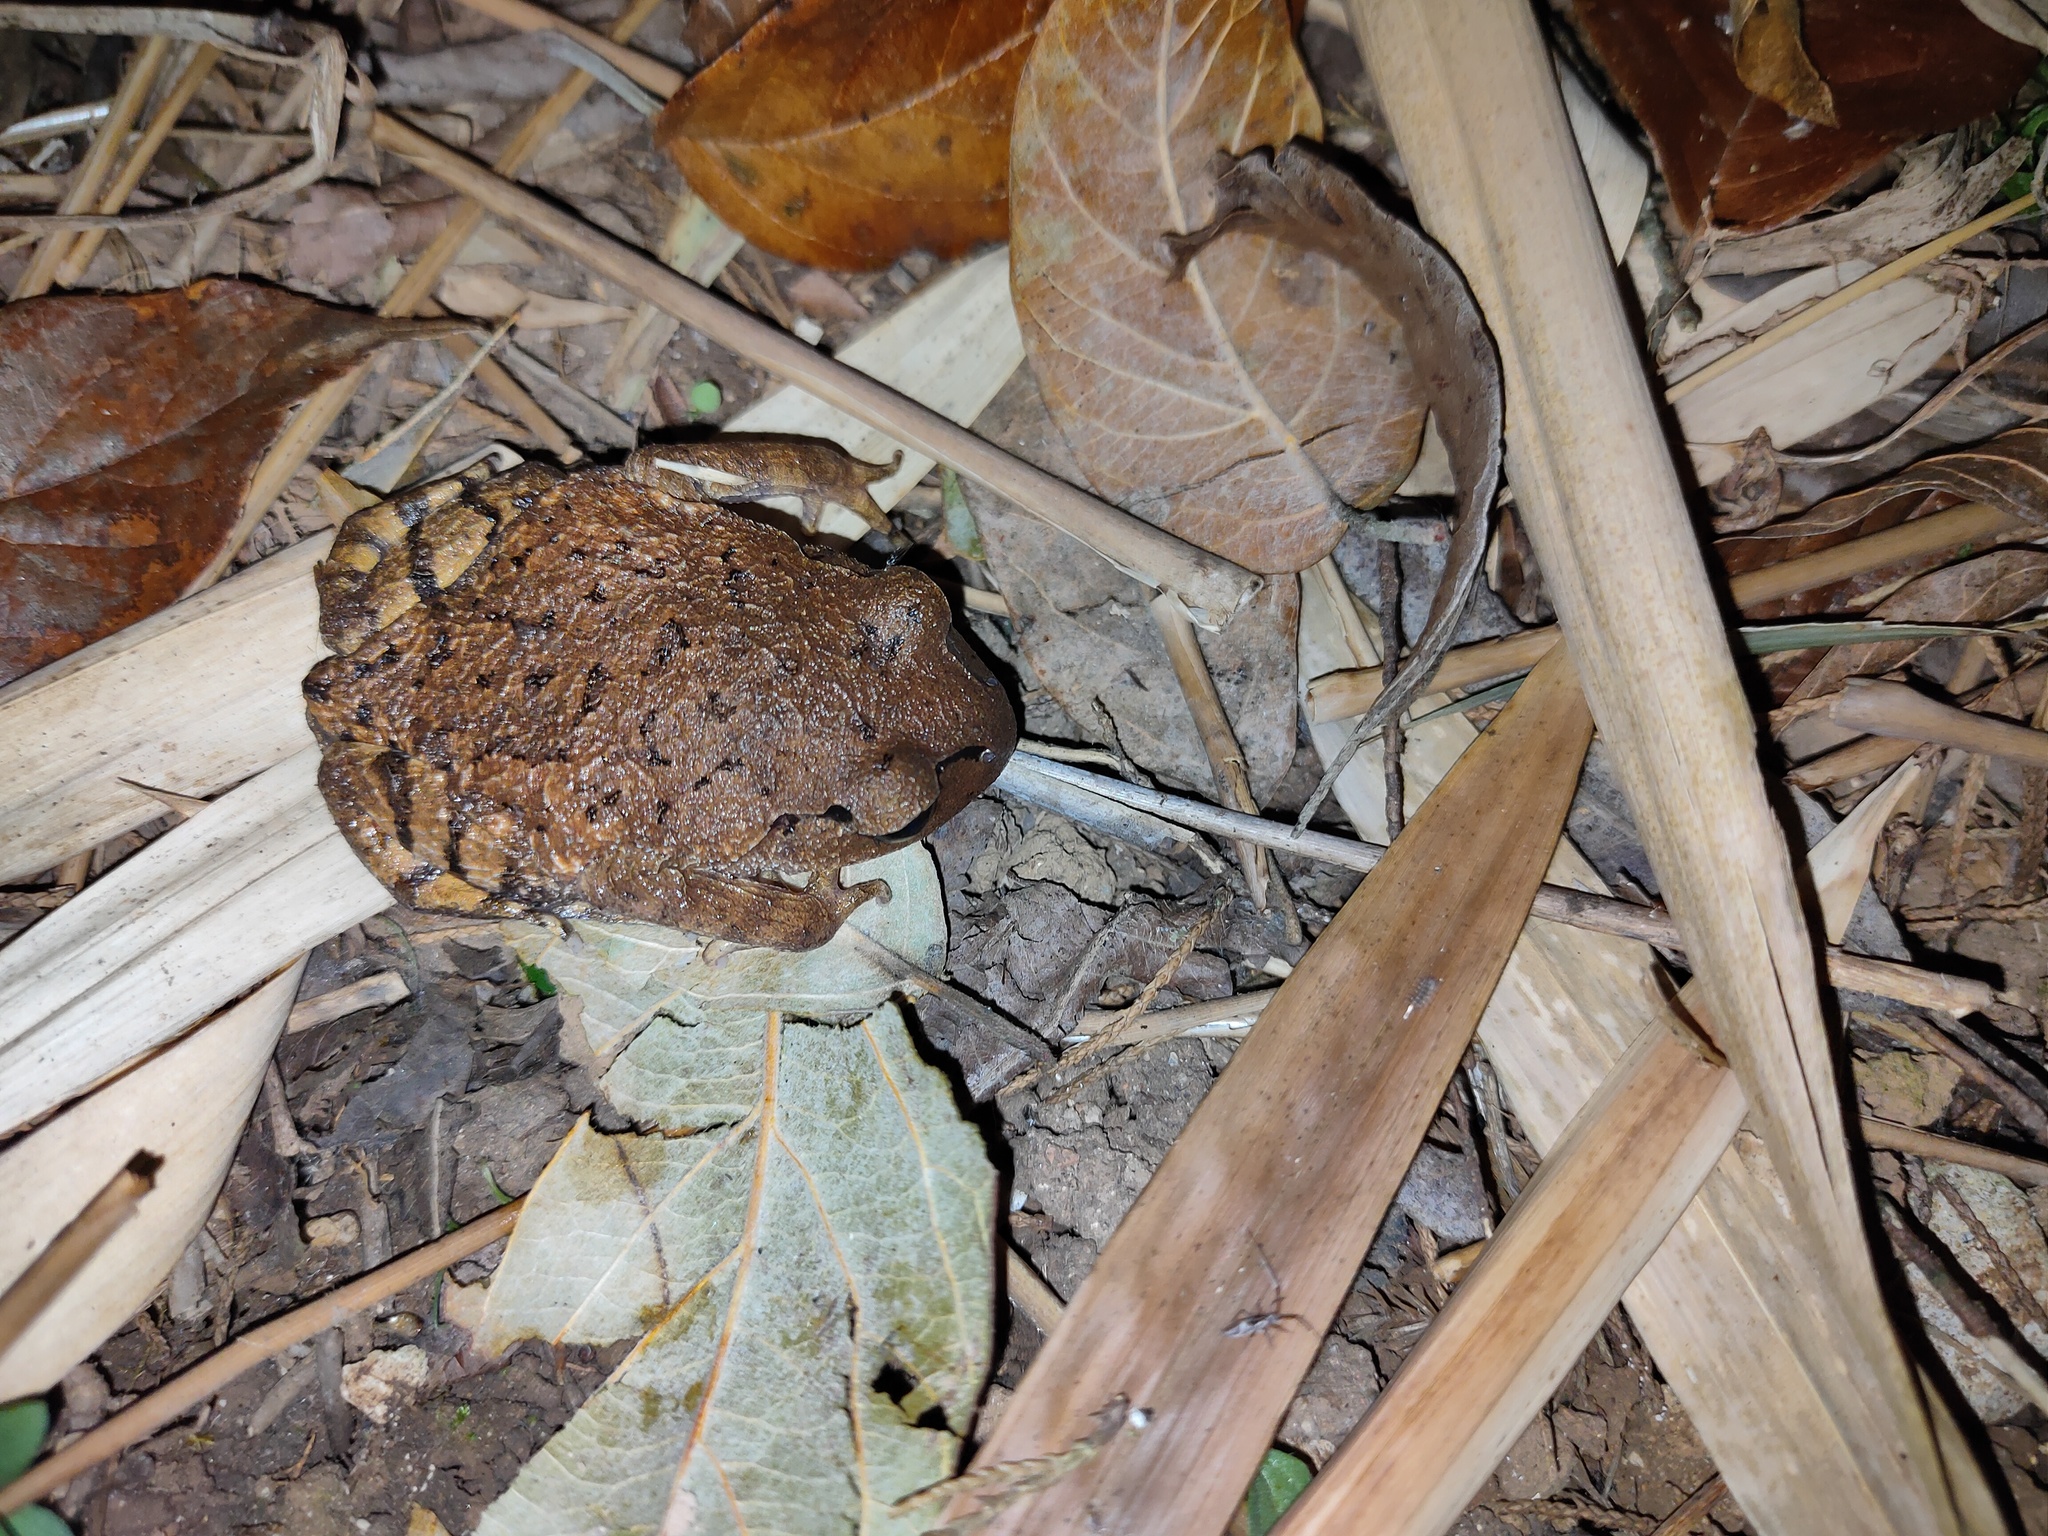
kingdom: Animalia
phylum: Chordata
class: Amphibia
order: Anura
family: Megophryidae
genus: Leptobrachium
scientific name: Leptobrachium huashen
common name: Huashen pseudomoustache toad
